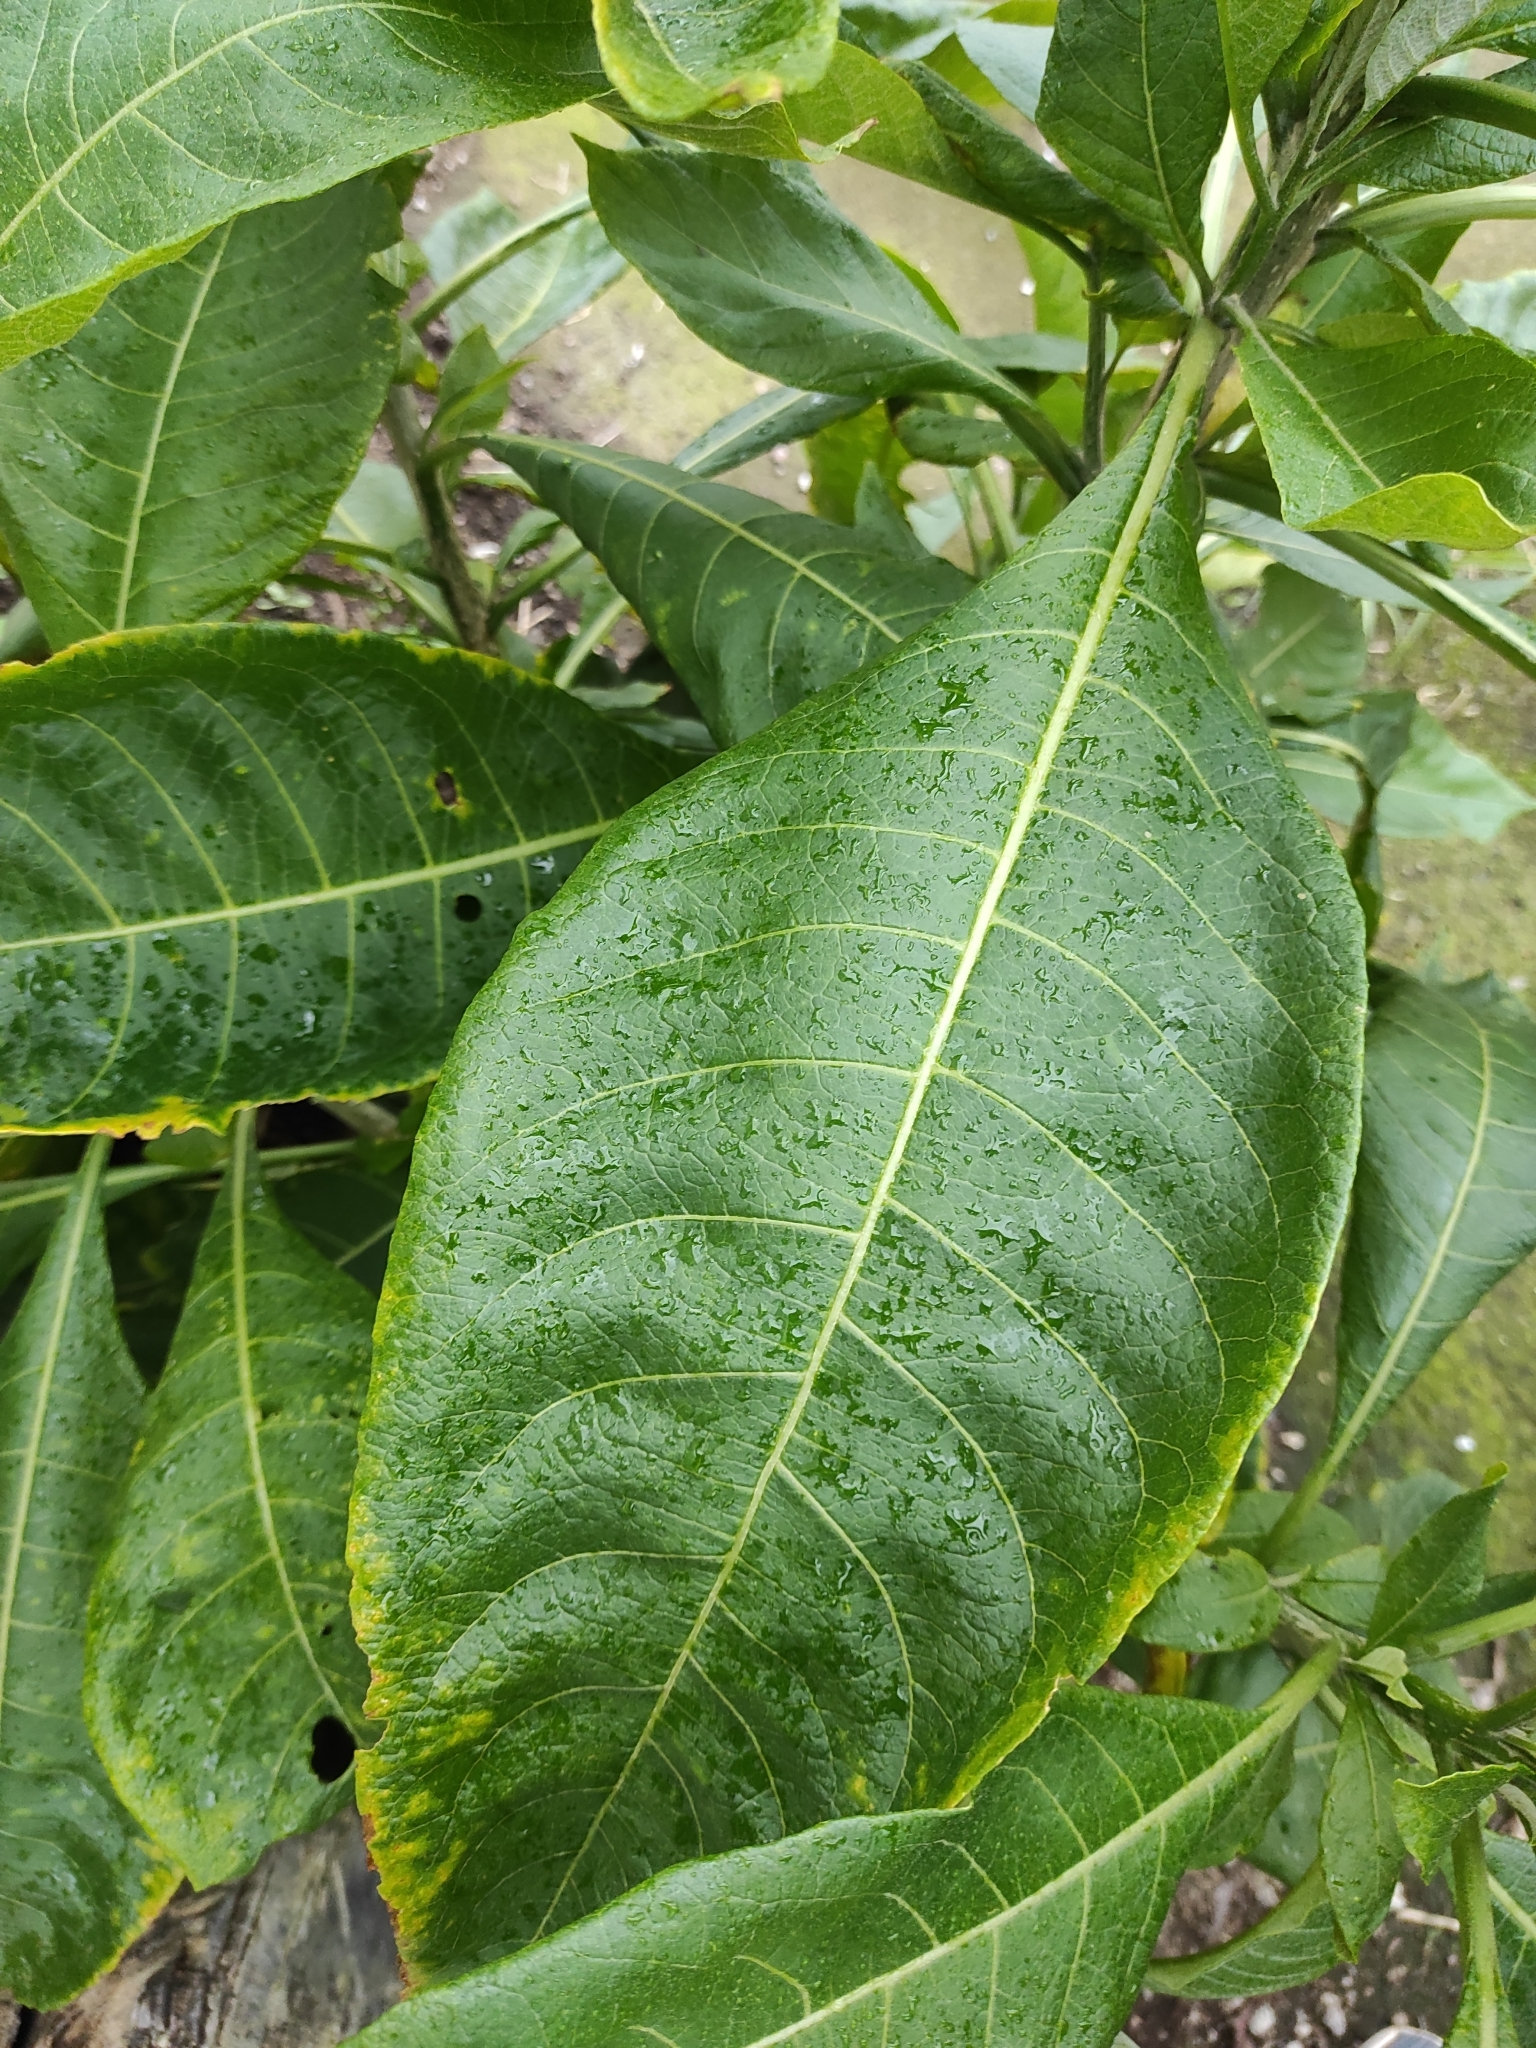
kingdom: Plantae
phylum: Tracheophyta
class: Magnoliopsida
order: Solanales
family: Solanaceae
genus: Iochroma
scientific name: Iochroma arborescens
